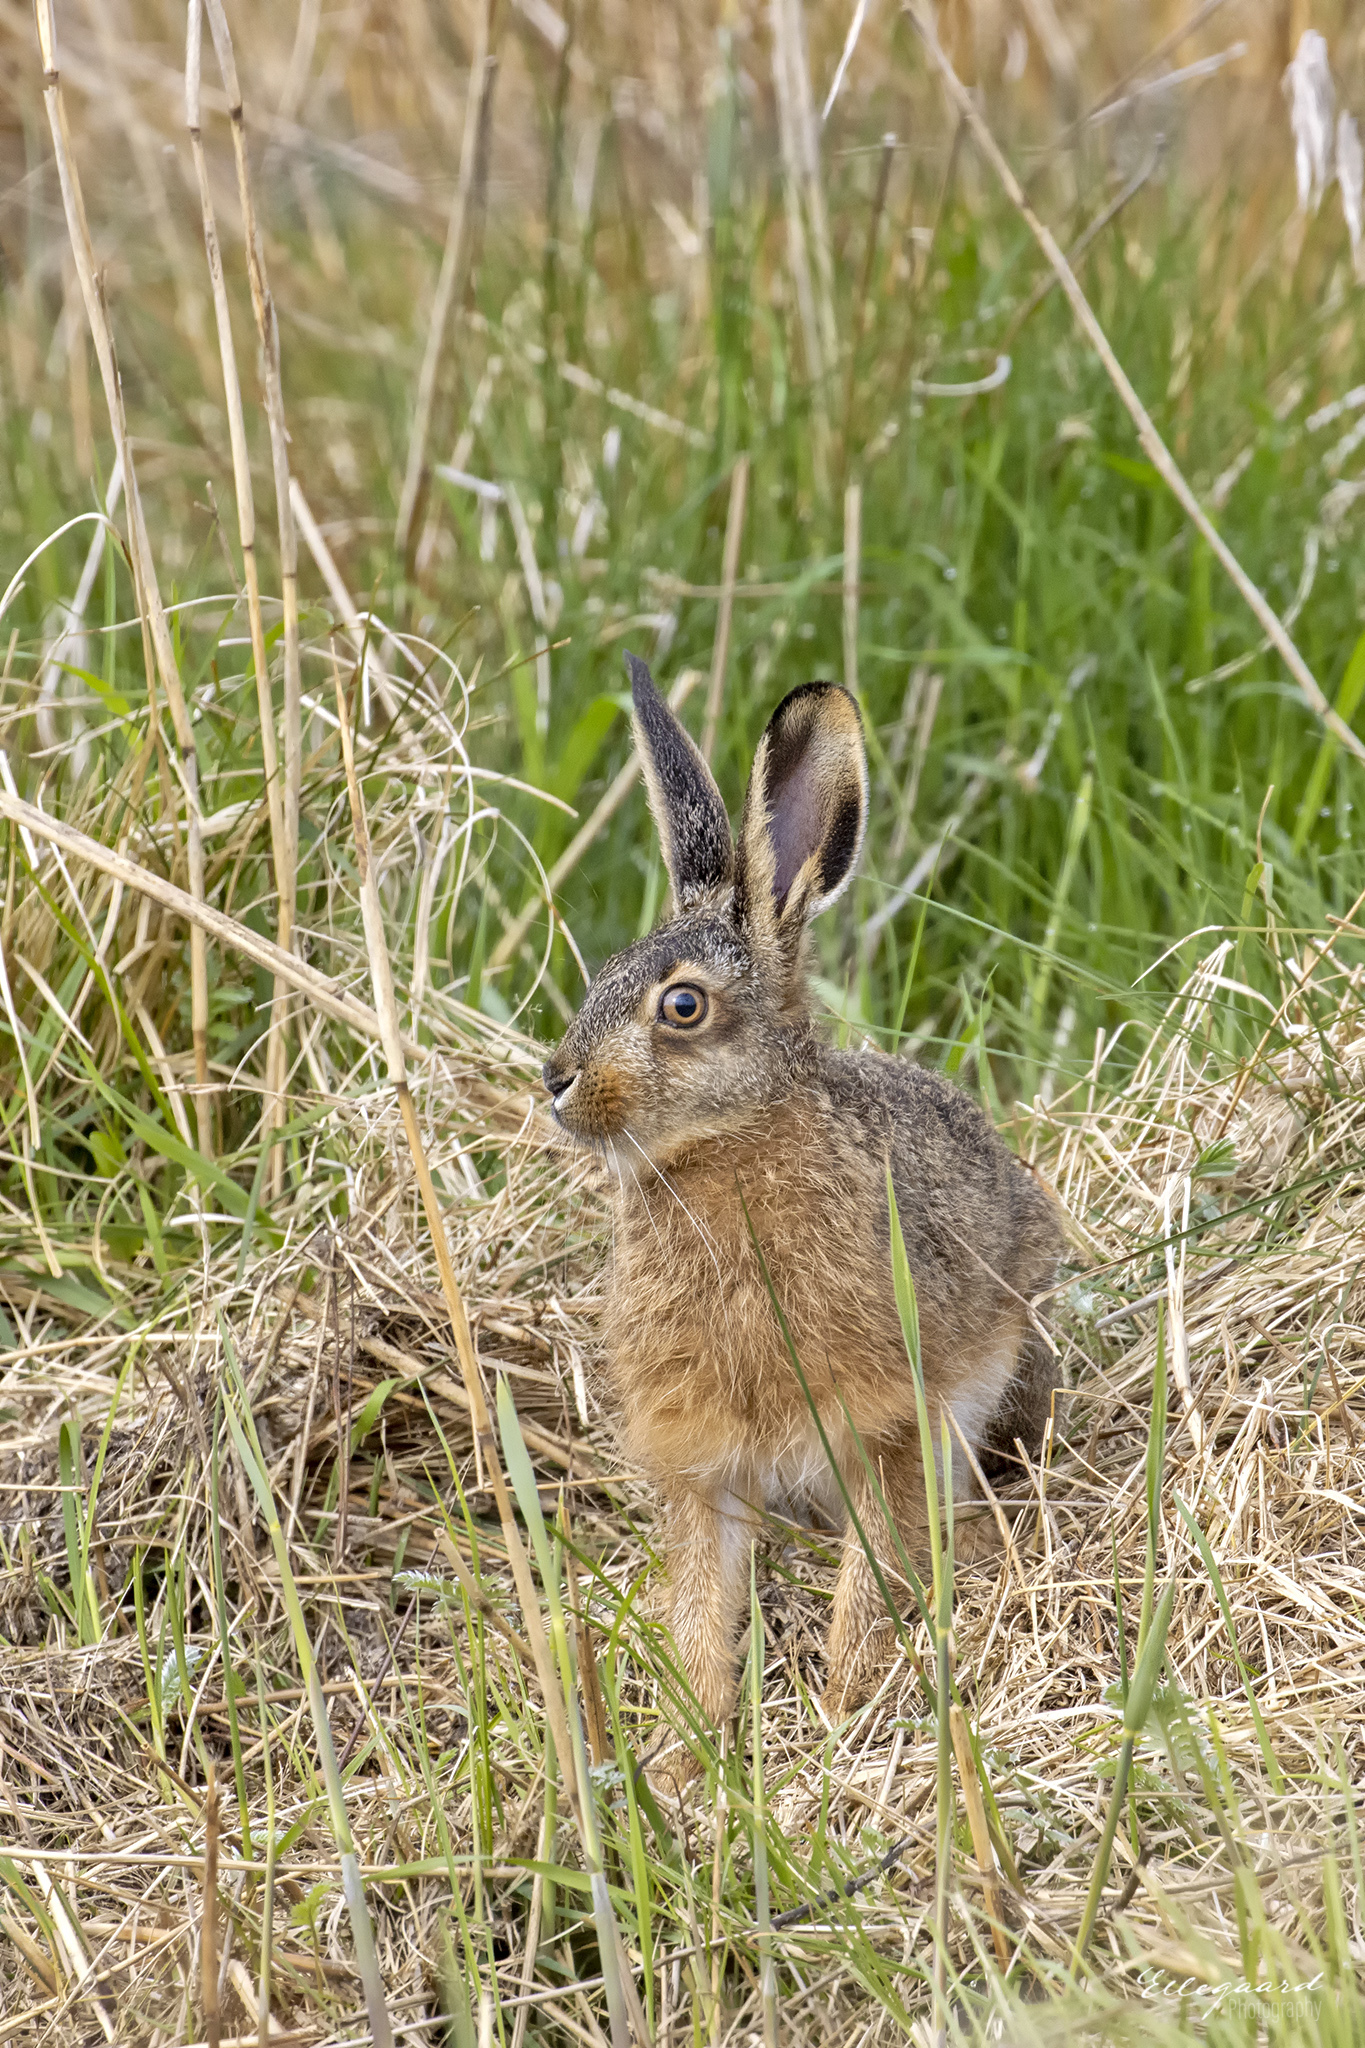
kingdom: Animalia
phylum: Chordata
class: Mammalia
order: Lagomorpha
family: Leporidae
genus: Lepus
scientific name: Lepus europaeus
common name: European hare
